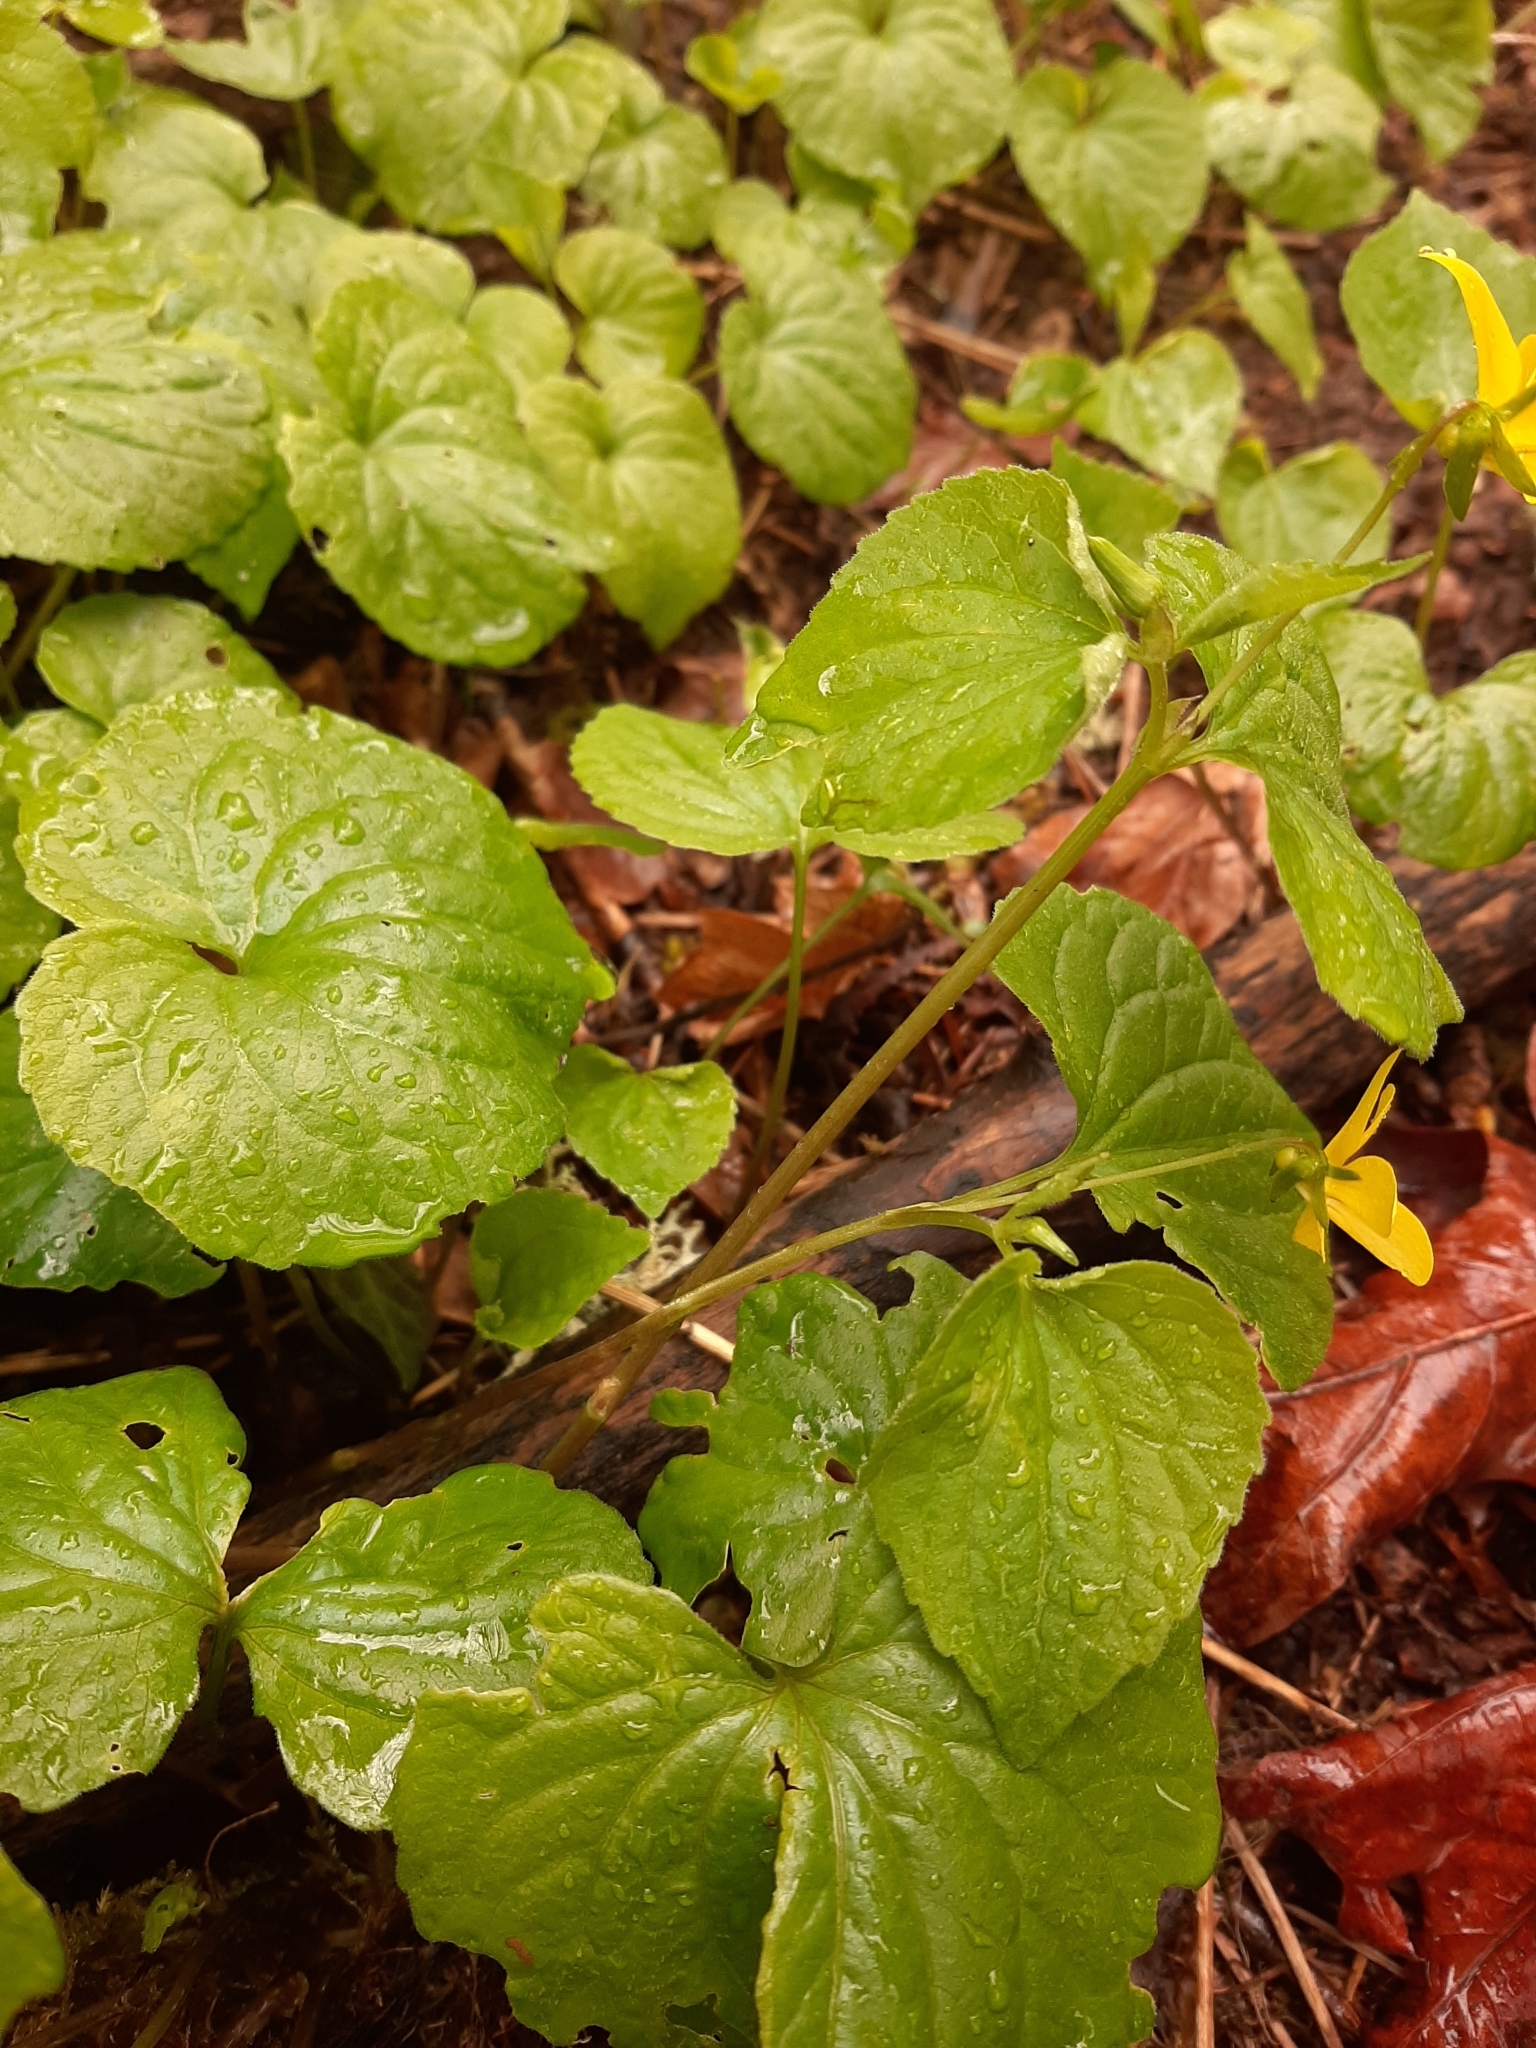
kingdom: Plantae
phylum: Tracheophyta
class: Magnoliopsida
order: Malpighiales
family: Violaceae
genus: Viola
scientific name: Viola glabella
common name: Stream violet
